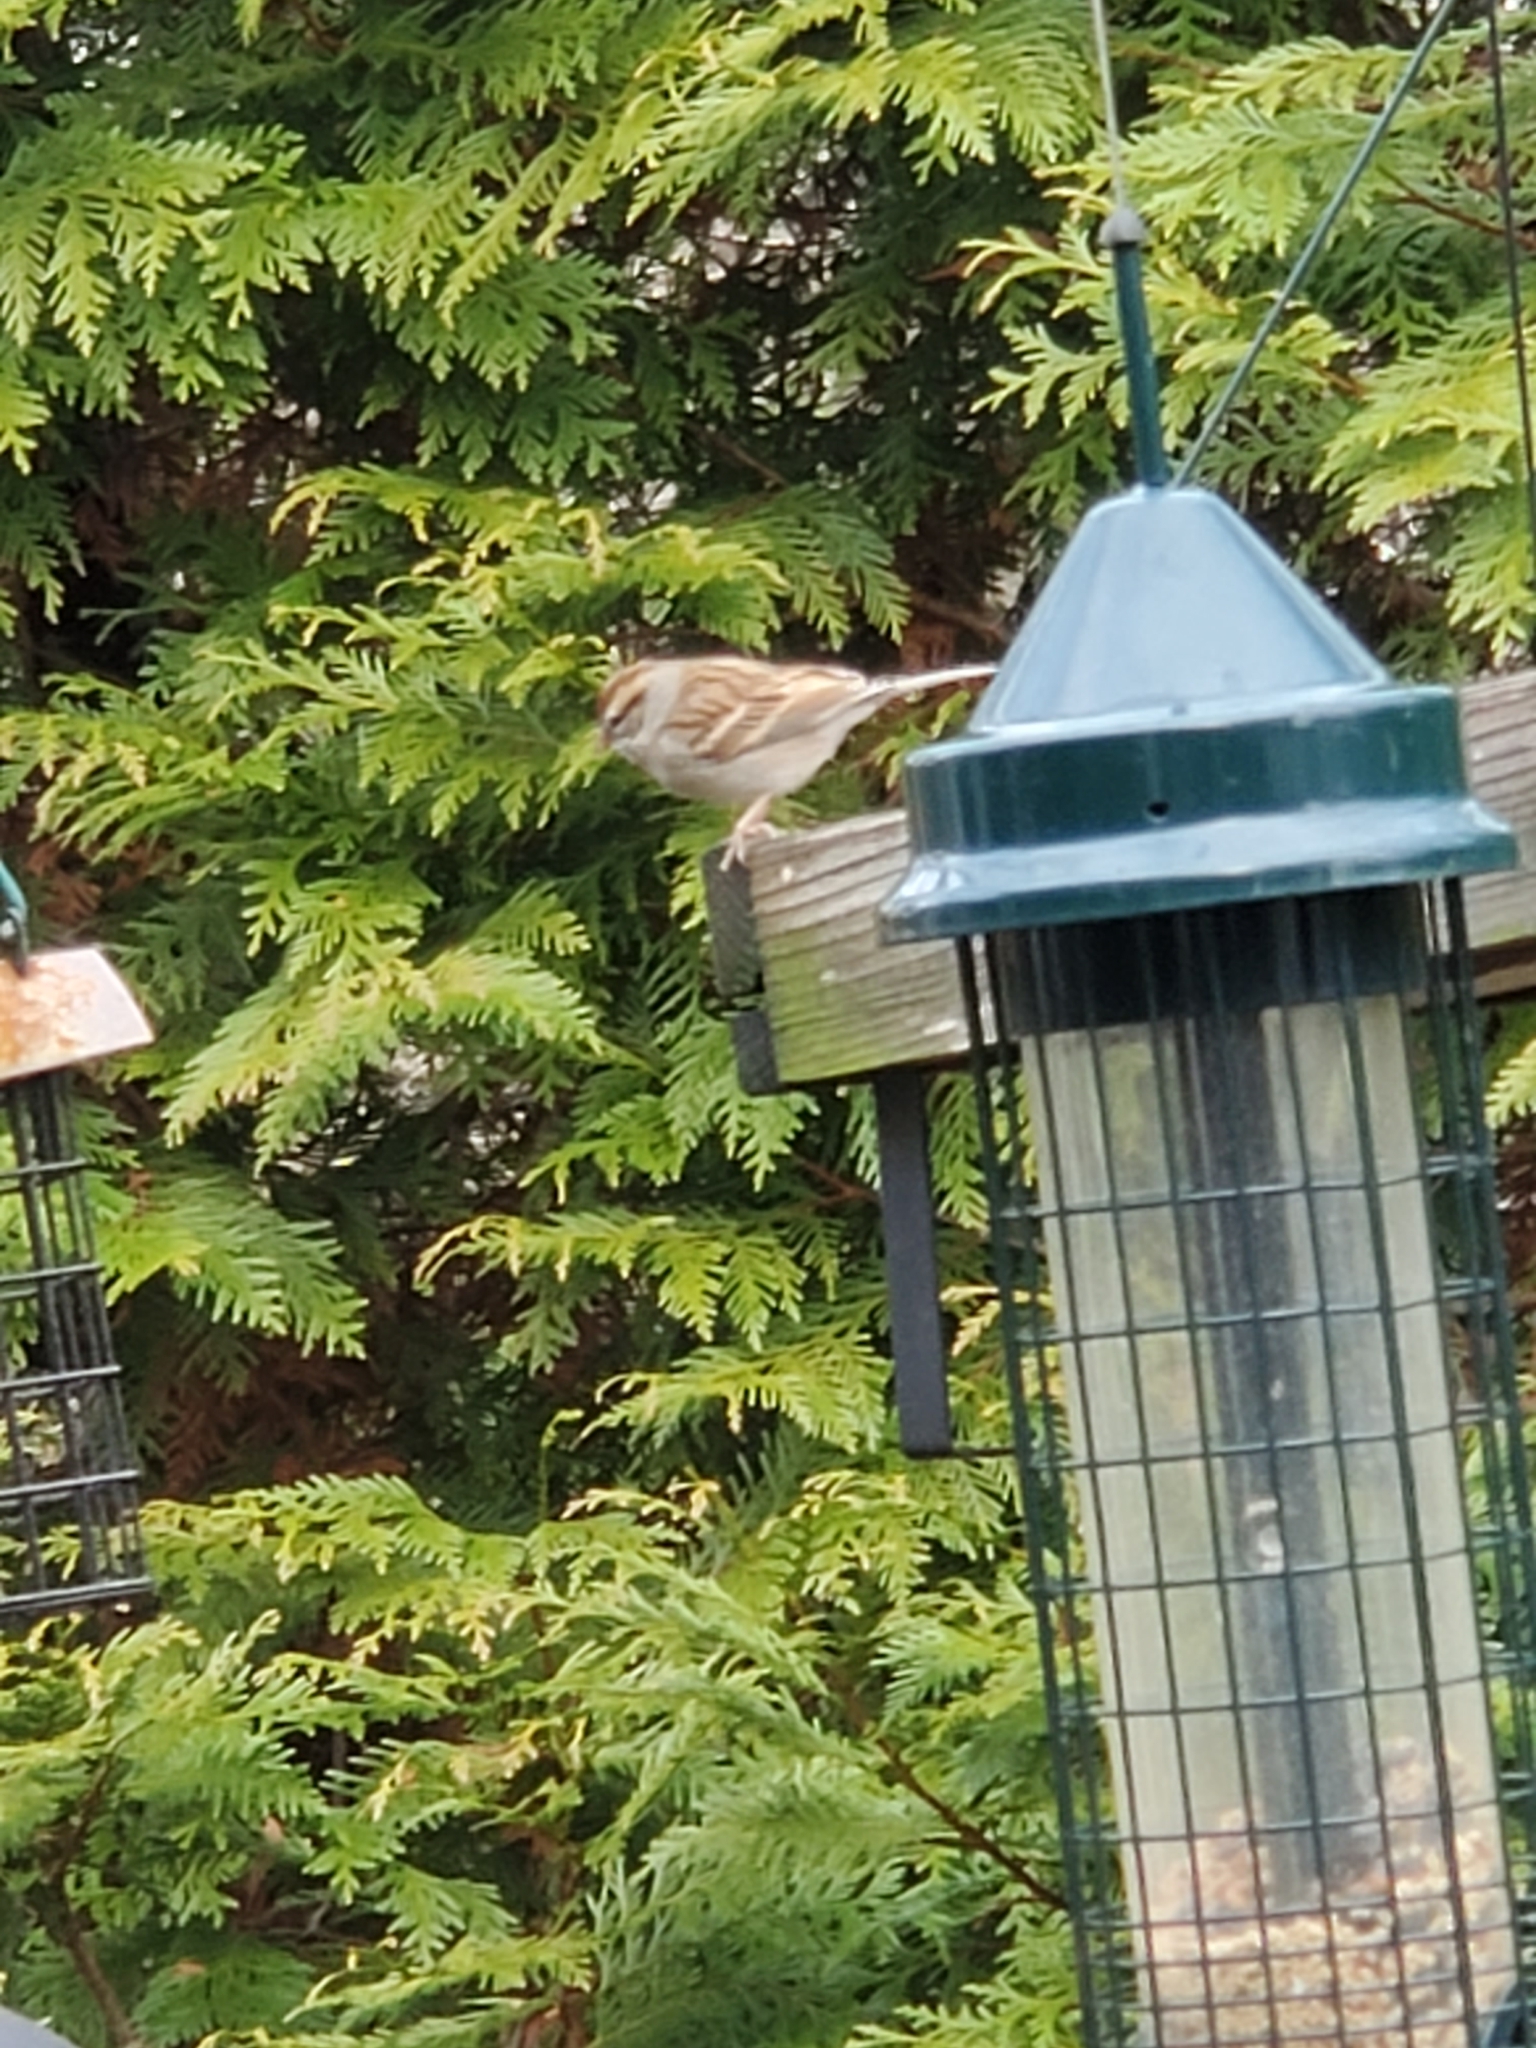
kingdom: Animalia
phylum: Chordata
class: Aves
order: Passeriformes
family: Passerellidae
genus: Spizella
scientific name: Spizella passerina
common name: Chipping sparrow
